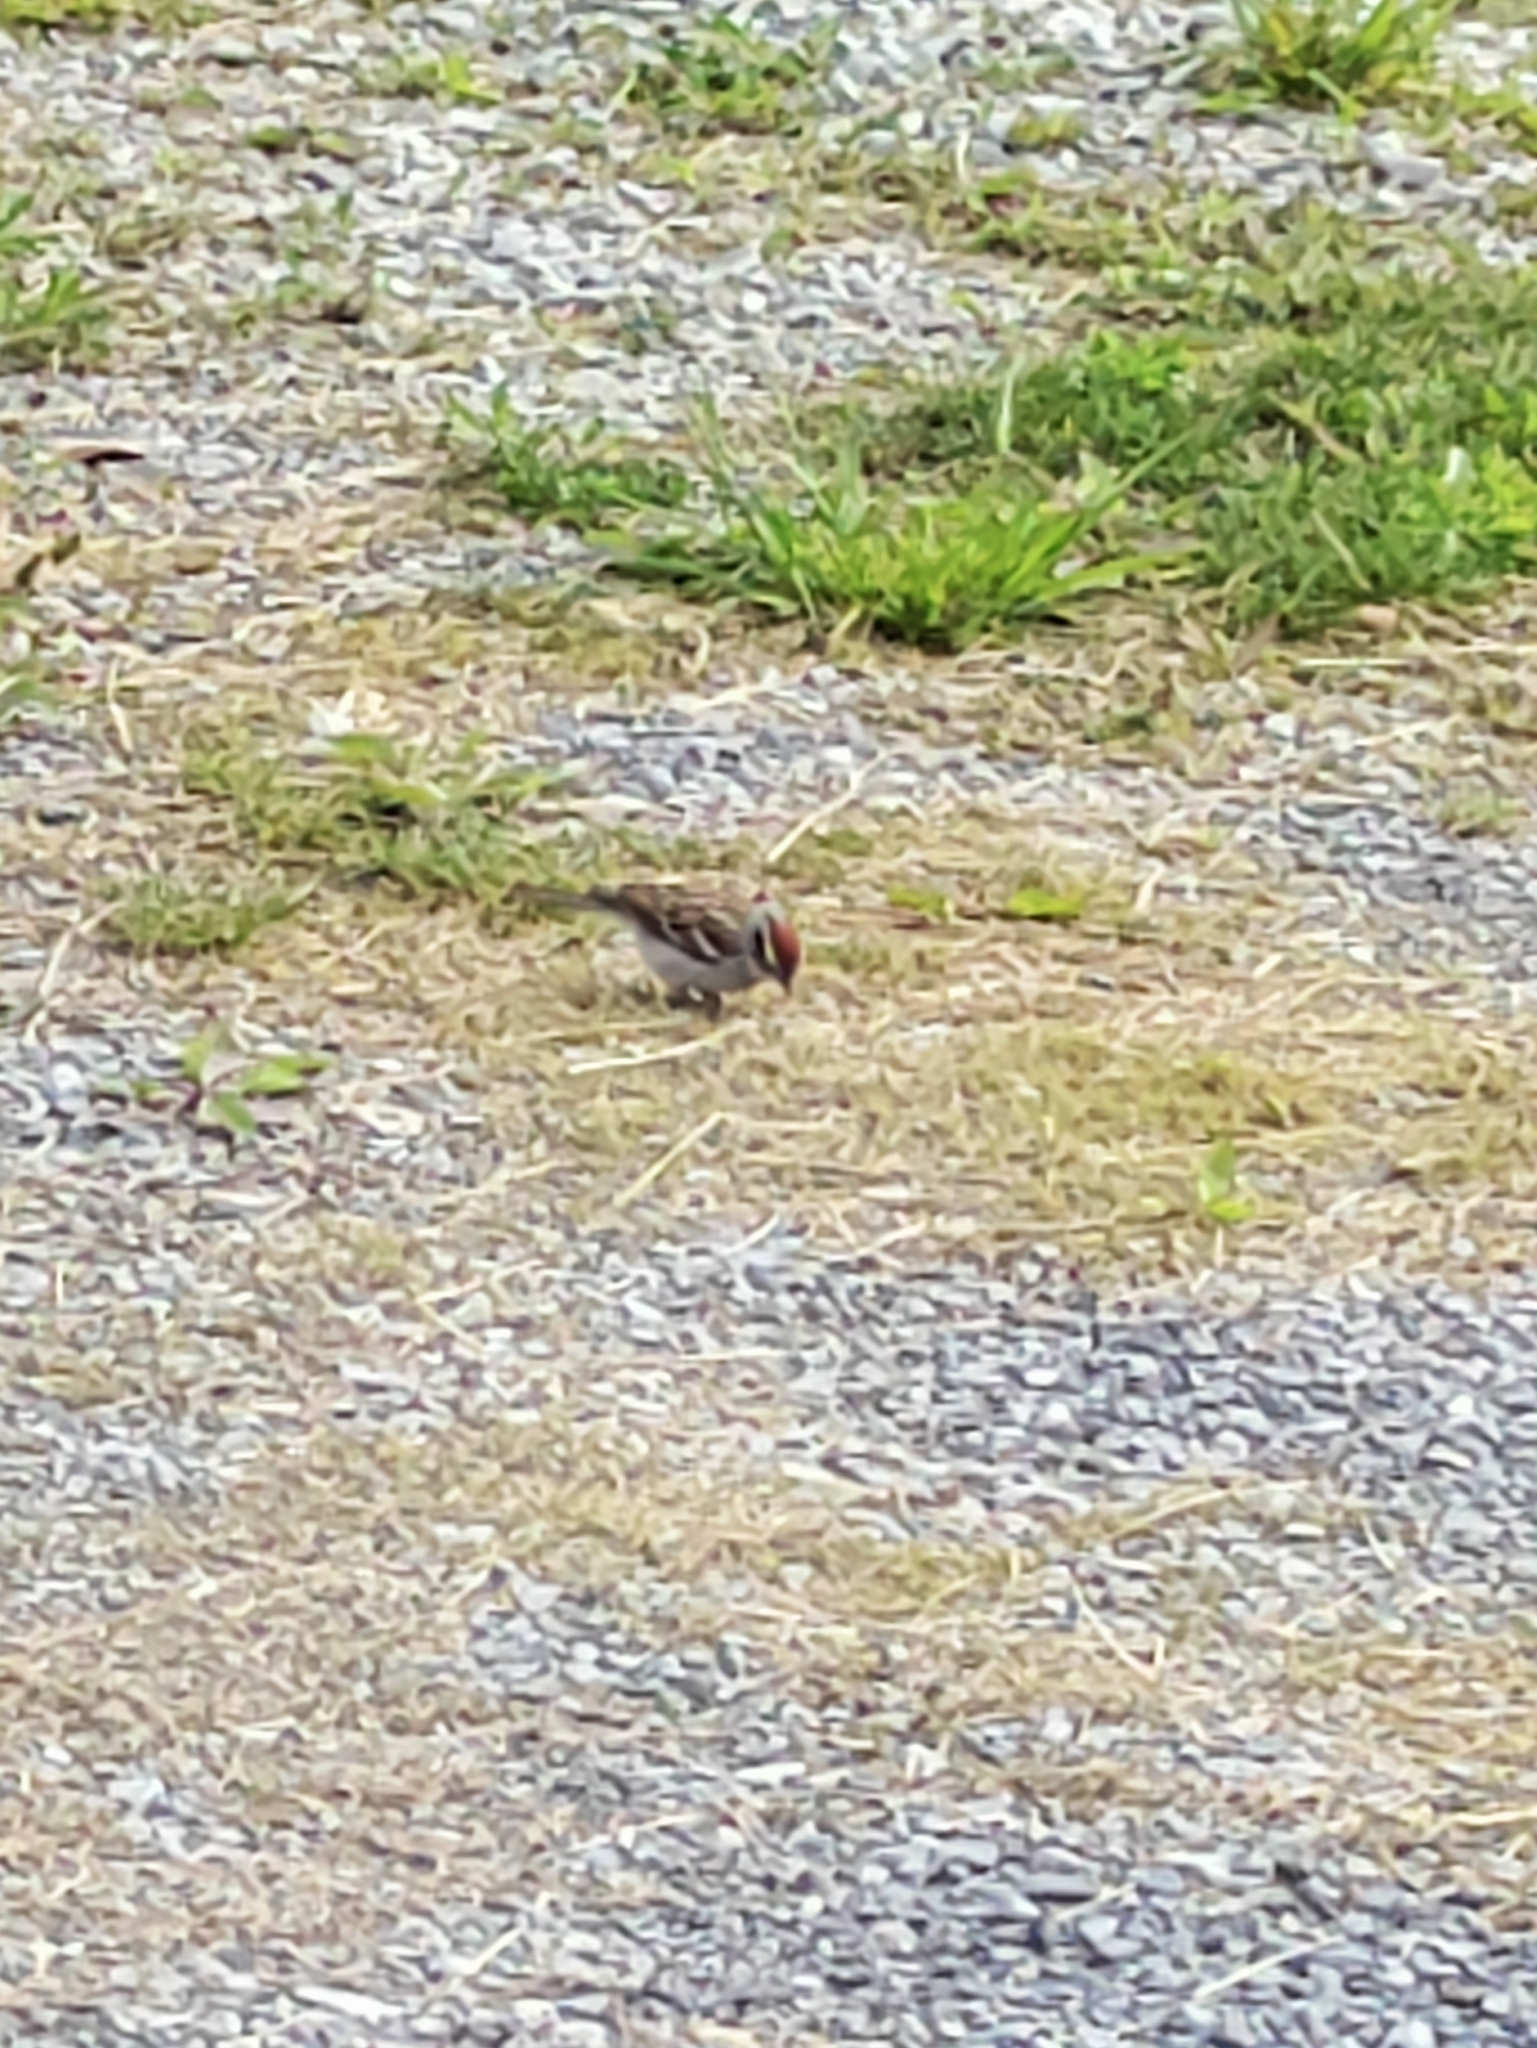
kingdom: Animalia
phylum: Chordata
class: Aves
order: Passeriformes
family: Passerellidae
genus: Spizella
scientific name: Spizella passerina
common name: Chipping sparrow
